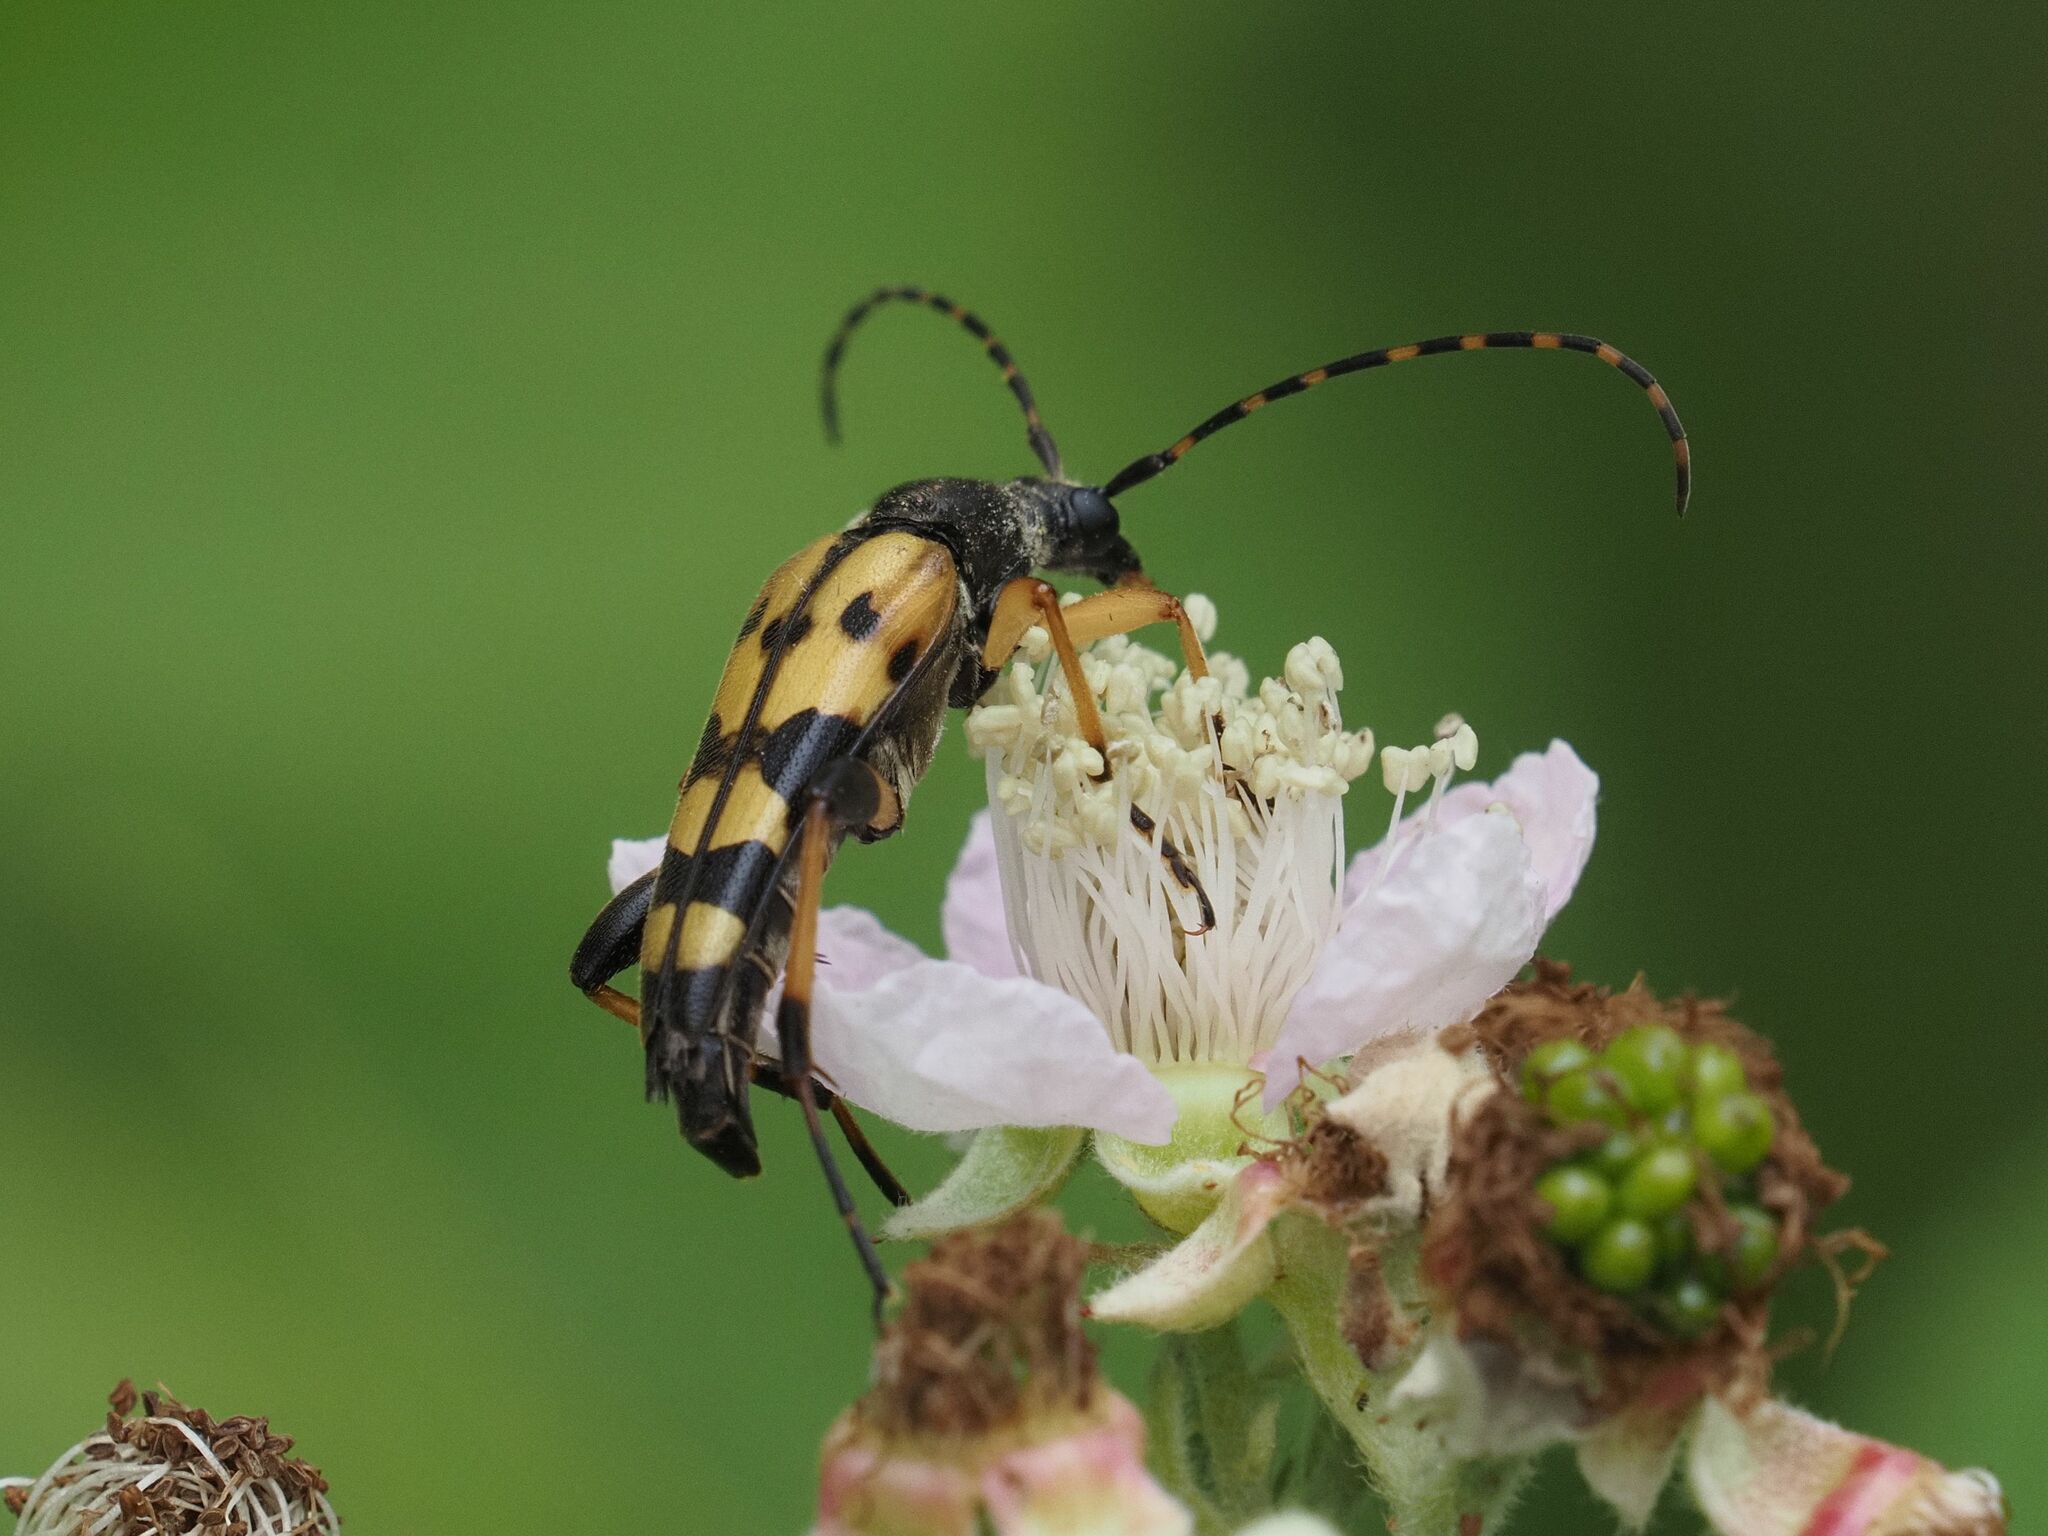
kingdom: Animalia
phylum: Arthropoda
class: Insecta
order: Coleoptera
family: Cerambycidae
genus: Rutpela
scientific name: Rutpela maculata
